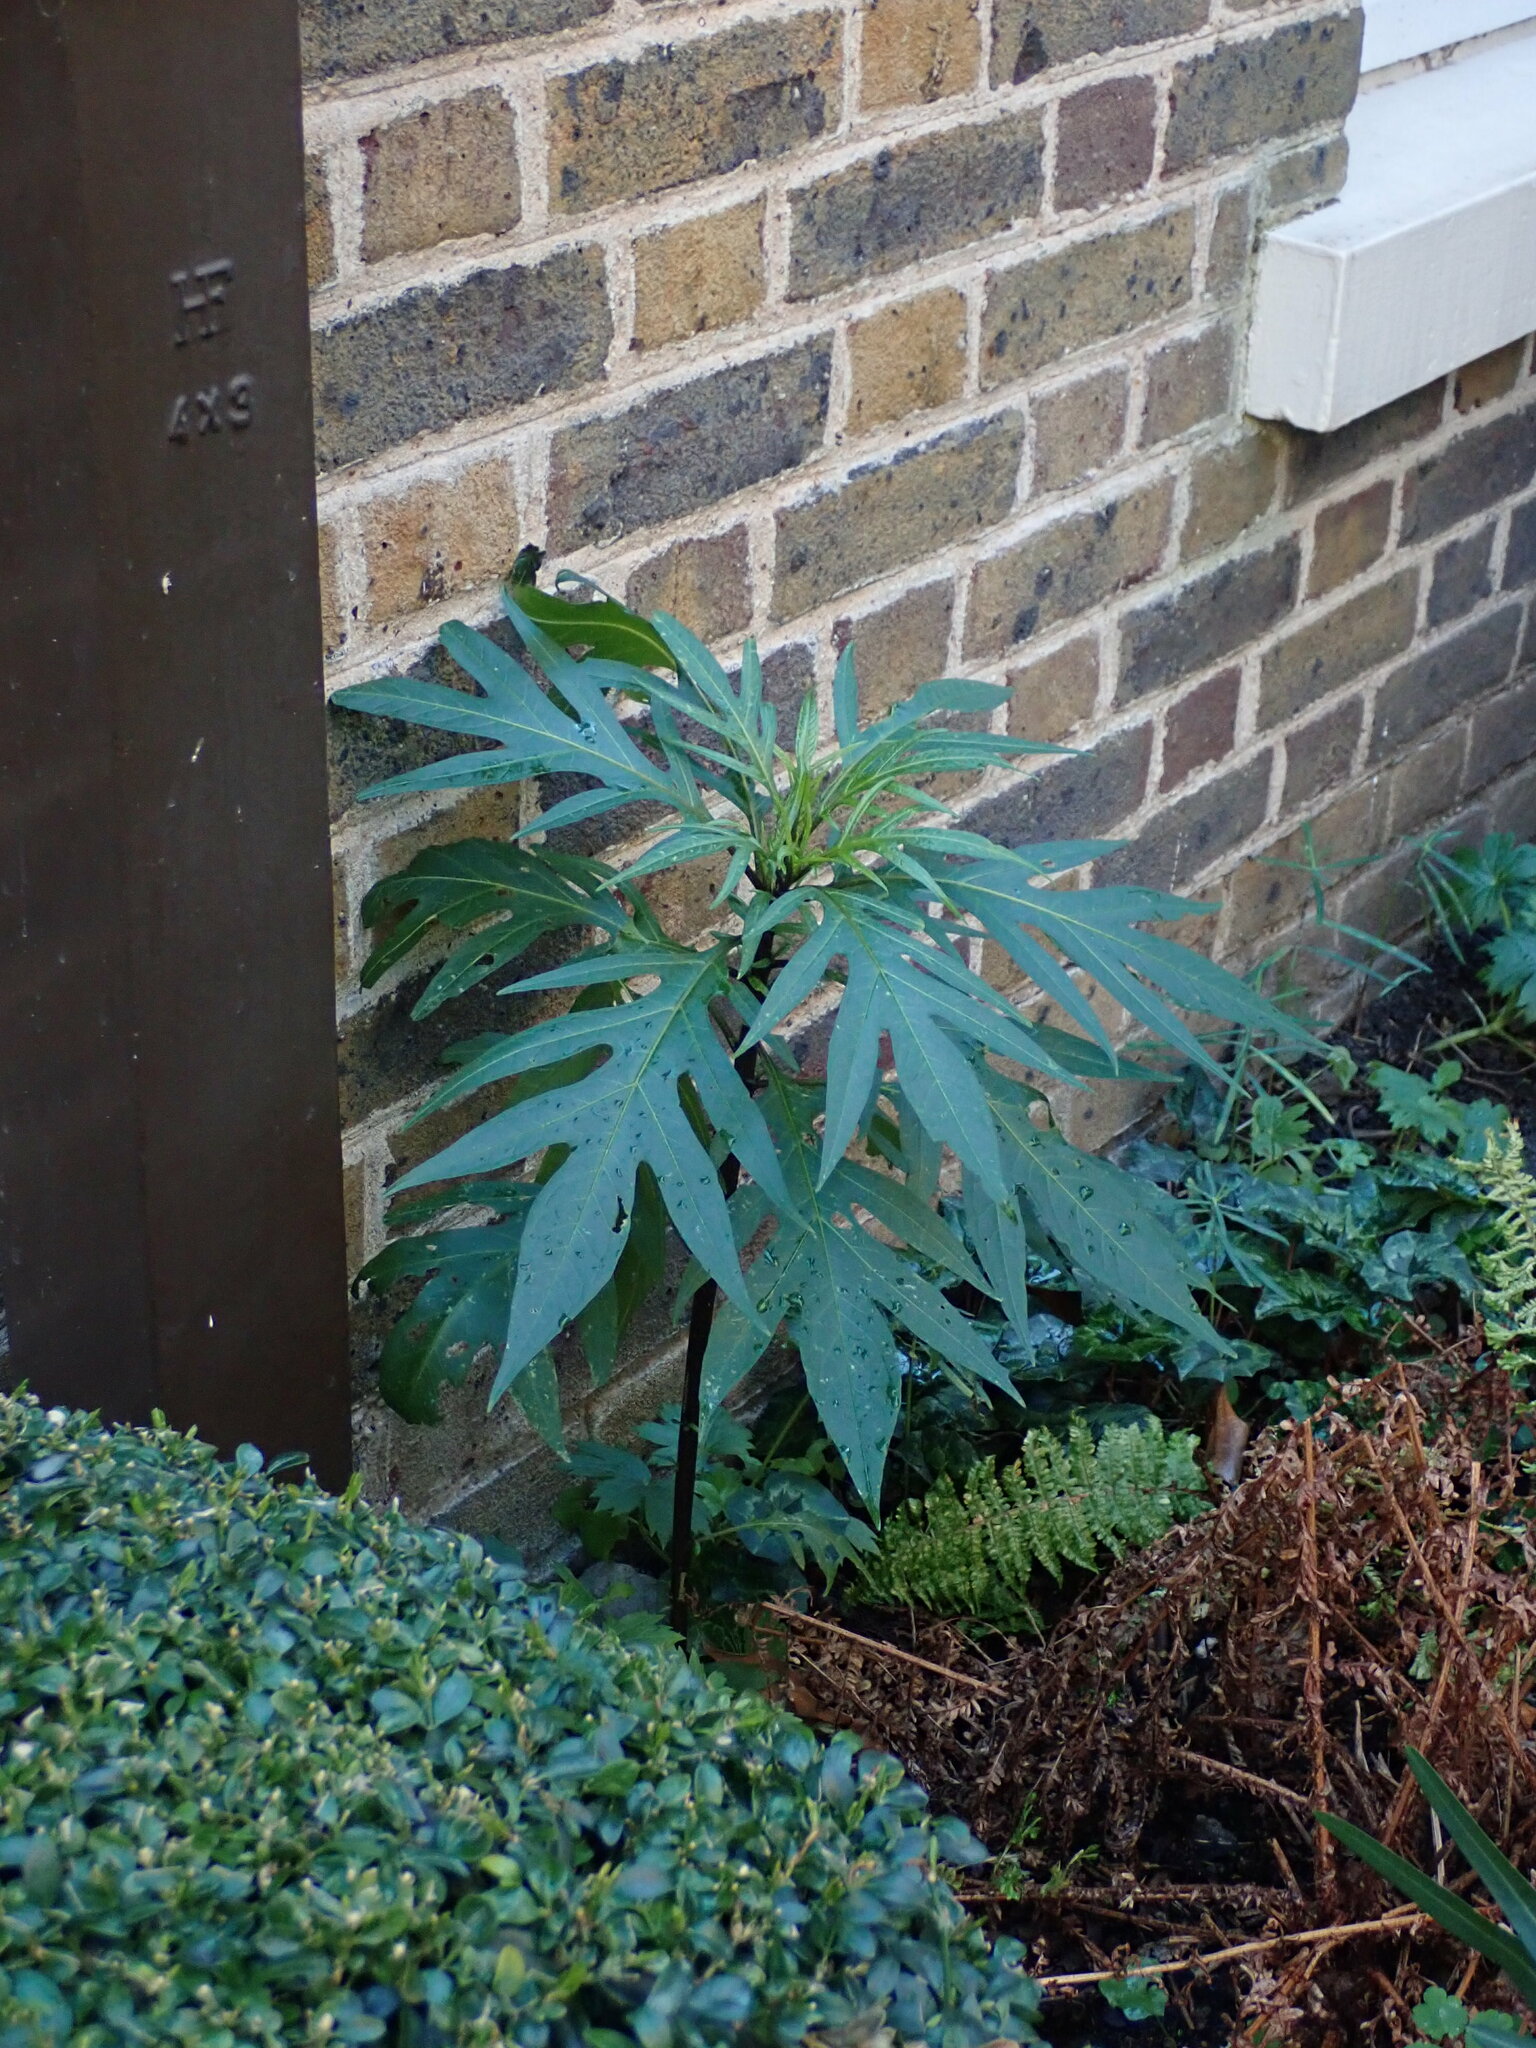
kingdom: Plantae
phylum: Tracheophyta
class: Magnoliopsida
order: Solanales
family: Solanaceae
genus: Solanum
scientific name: Solanum laciniatum
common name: Kangaroo-apple
